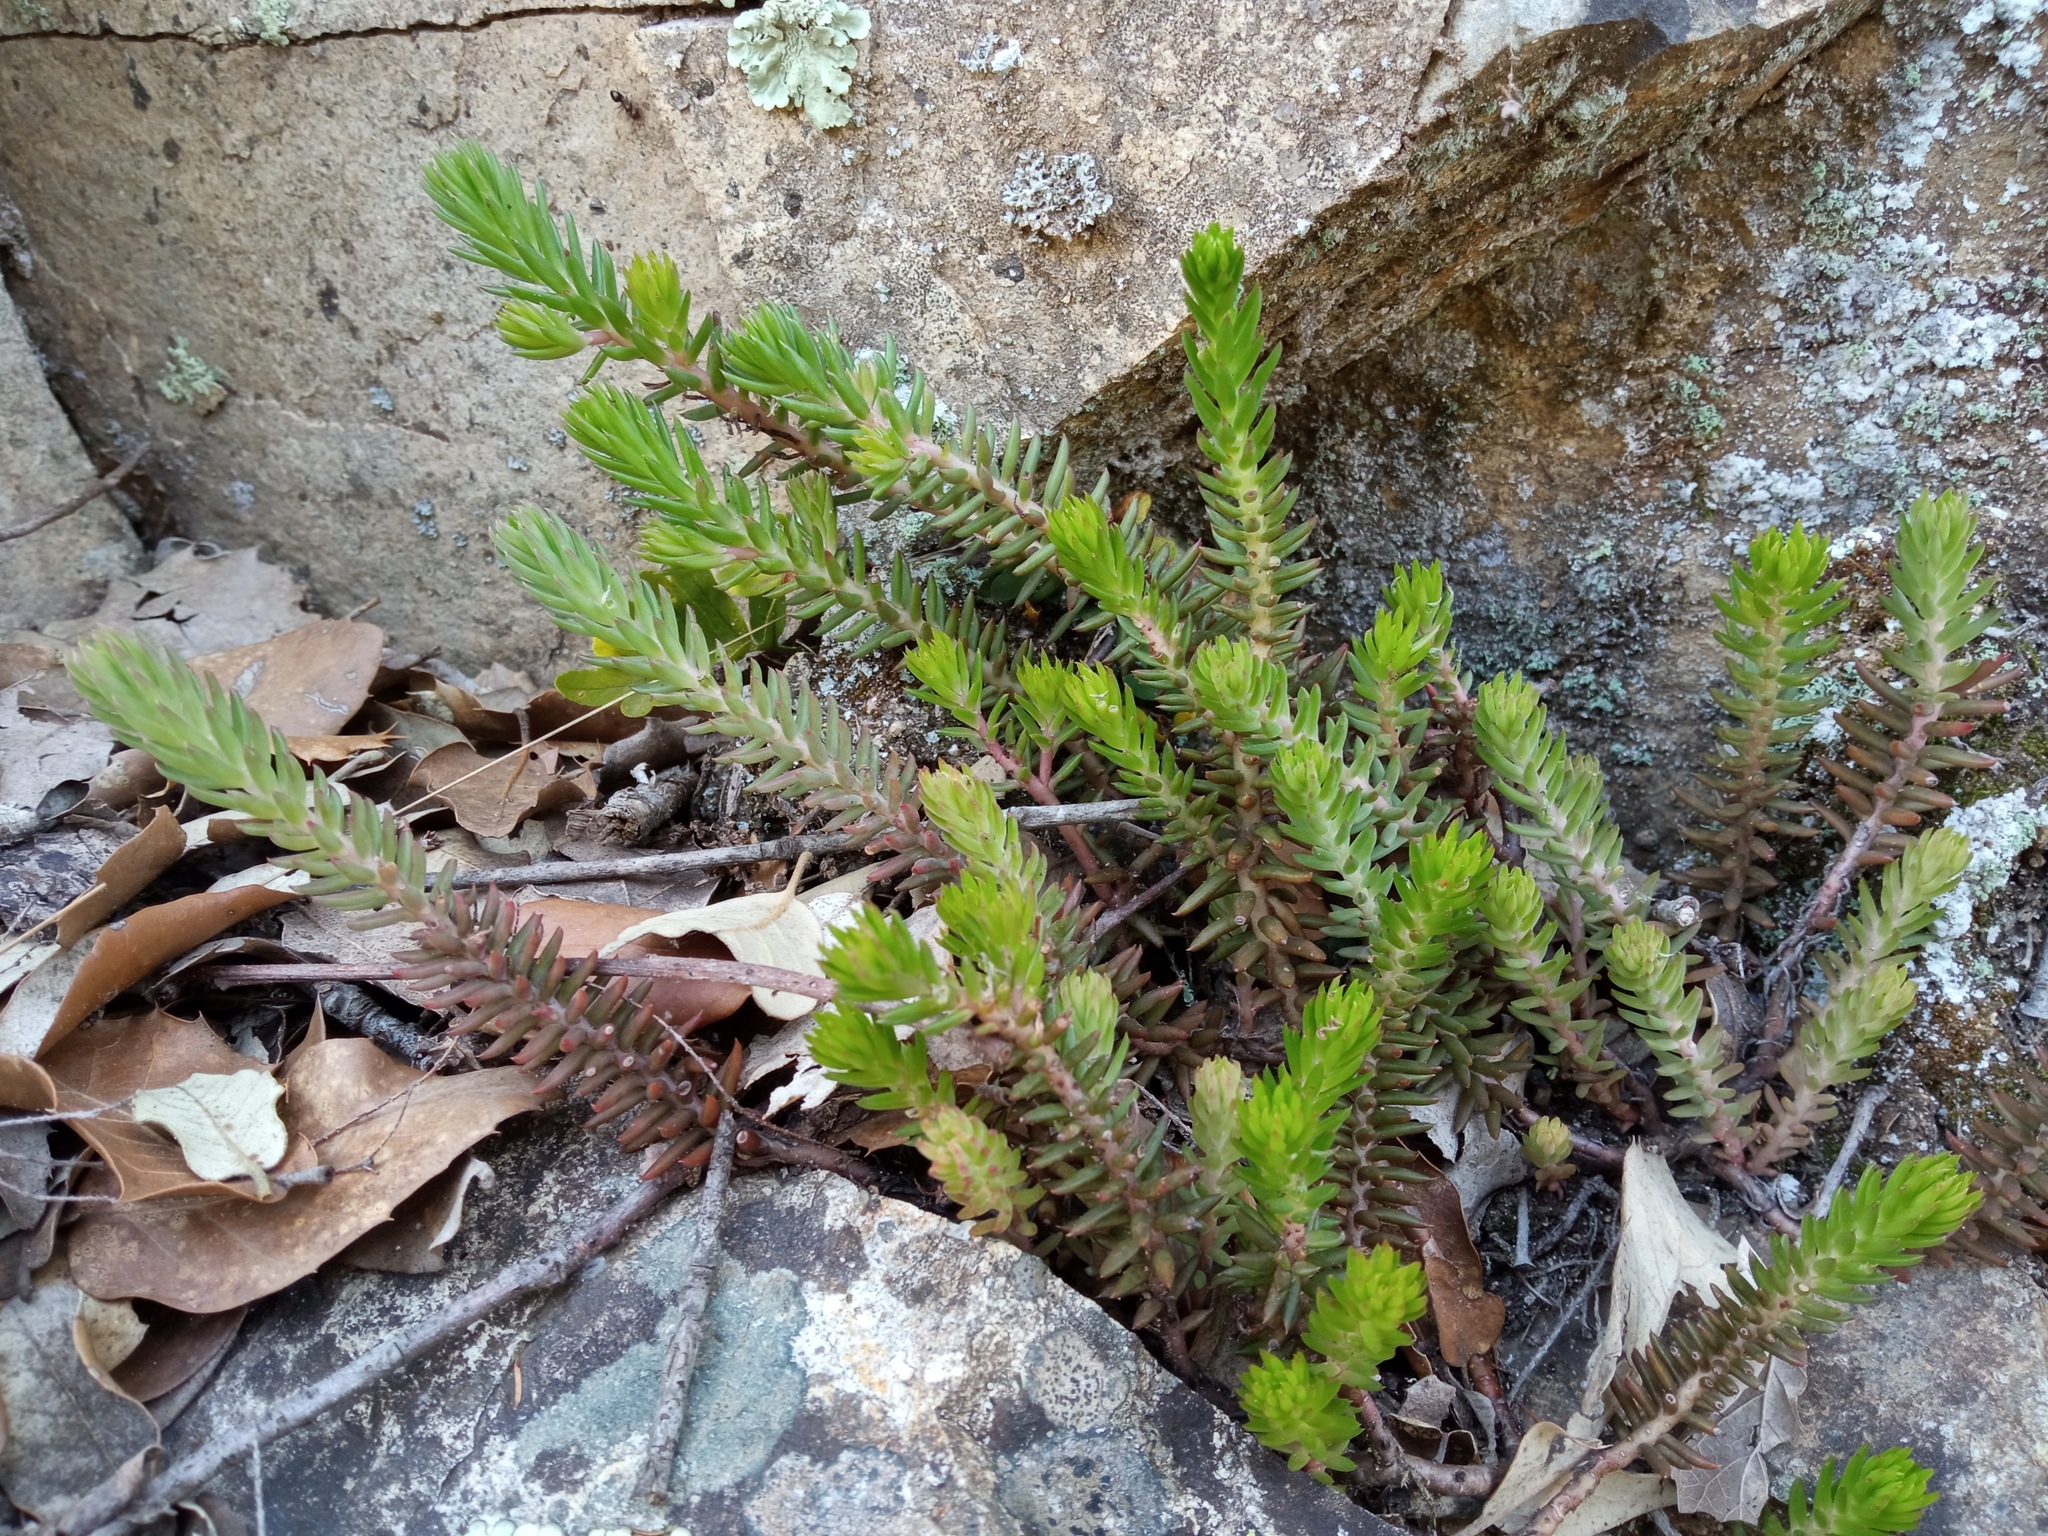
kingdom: Plantae
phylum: Tracheophyta
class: Magnoliopsida
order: Saxifragales
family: Crassulaceae
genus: Petrosedum
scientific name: Petrosedum rupestre
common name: Jenny's stonecrop
